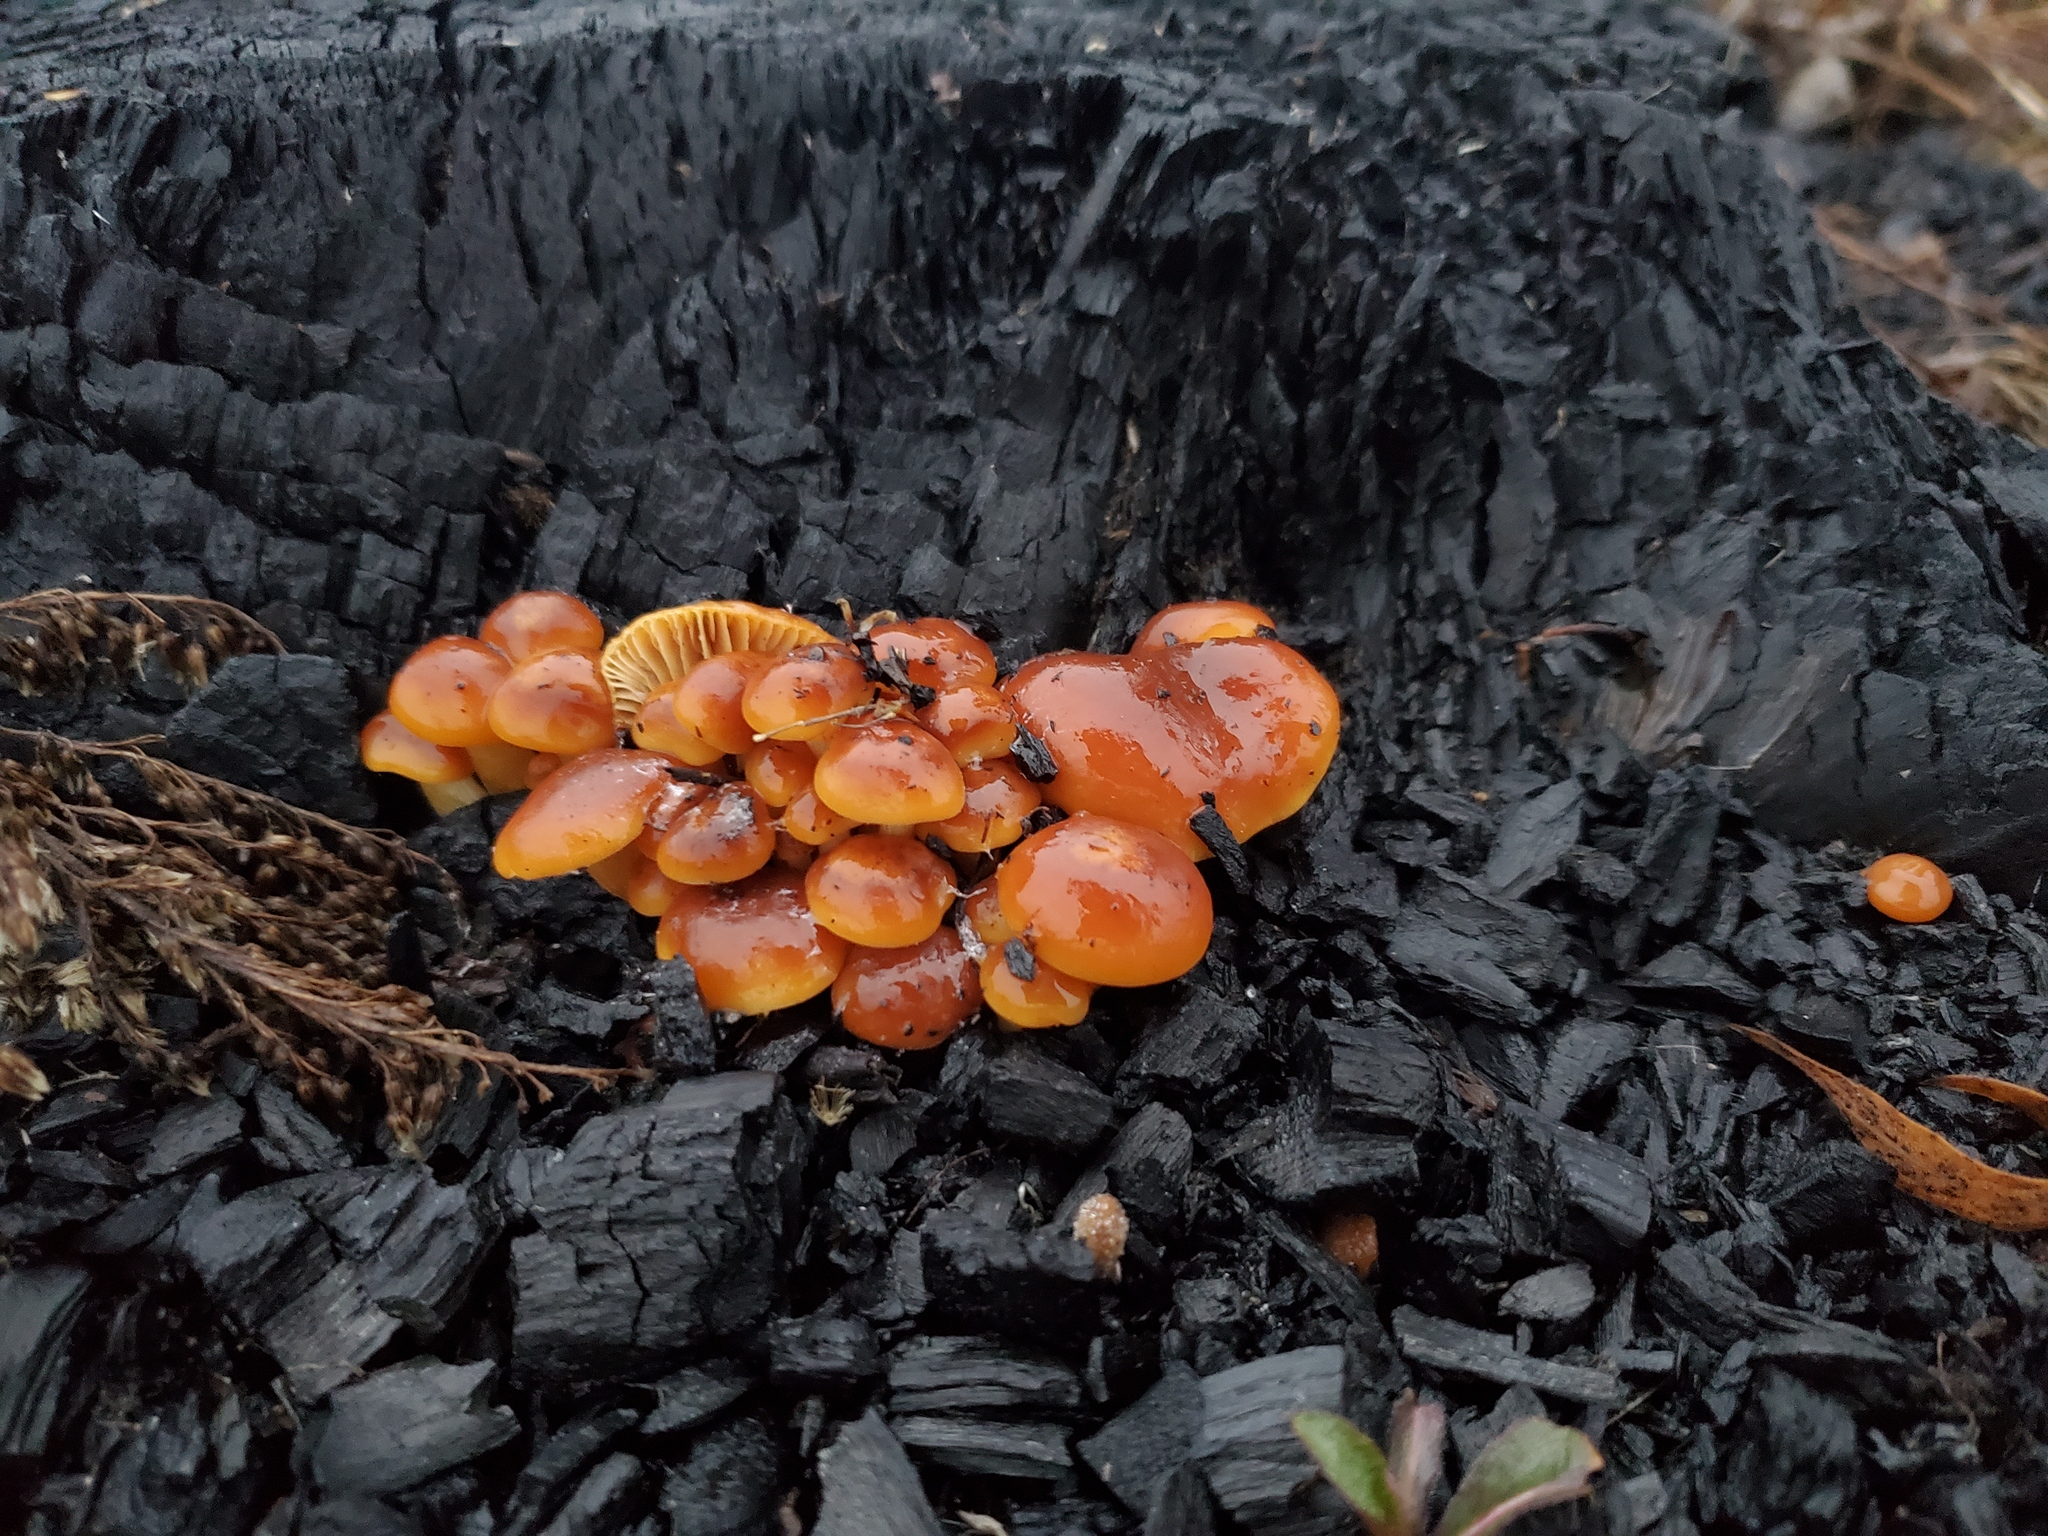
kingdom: Fungi
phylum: Basidiomycota
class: Agaricomycetes
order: Agaricales
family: Physalacriaceae
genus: Flammulina
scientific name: Flammulina velutipes
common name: Velvet shank
